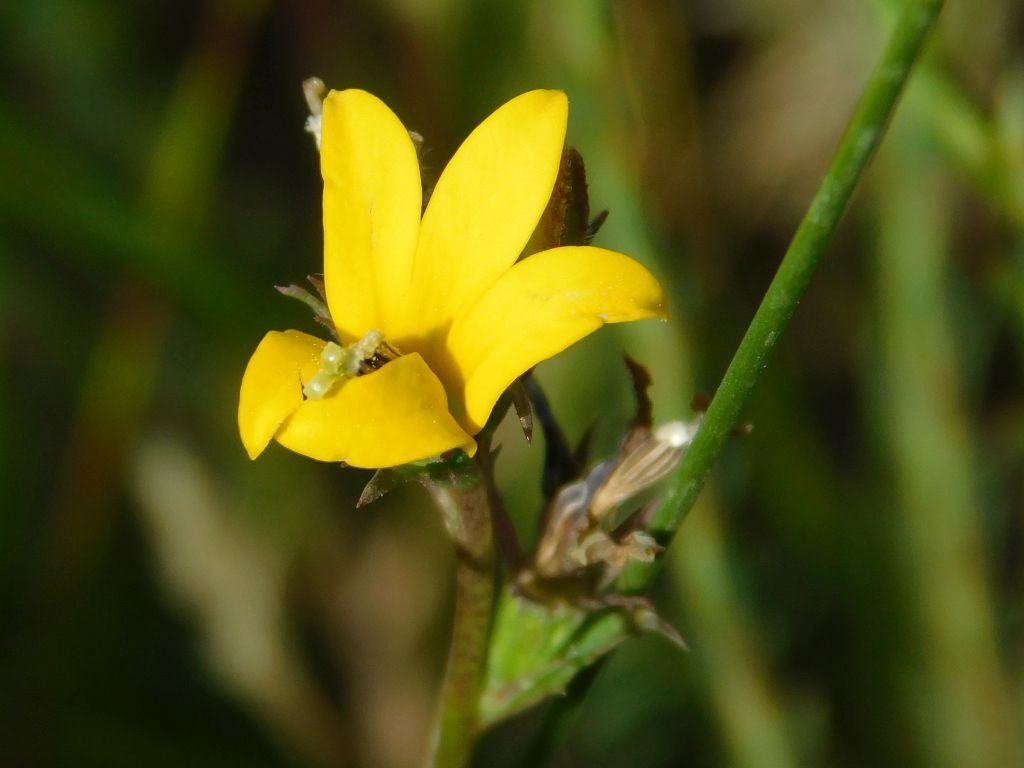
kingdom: Plantae
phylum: Tracheophyta
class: Magnoliopsida
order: Asterales
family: Campanulaceae
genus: Monopsis
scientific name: Monopsis lutea
